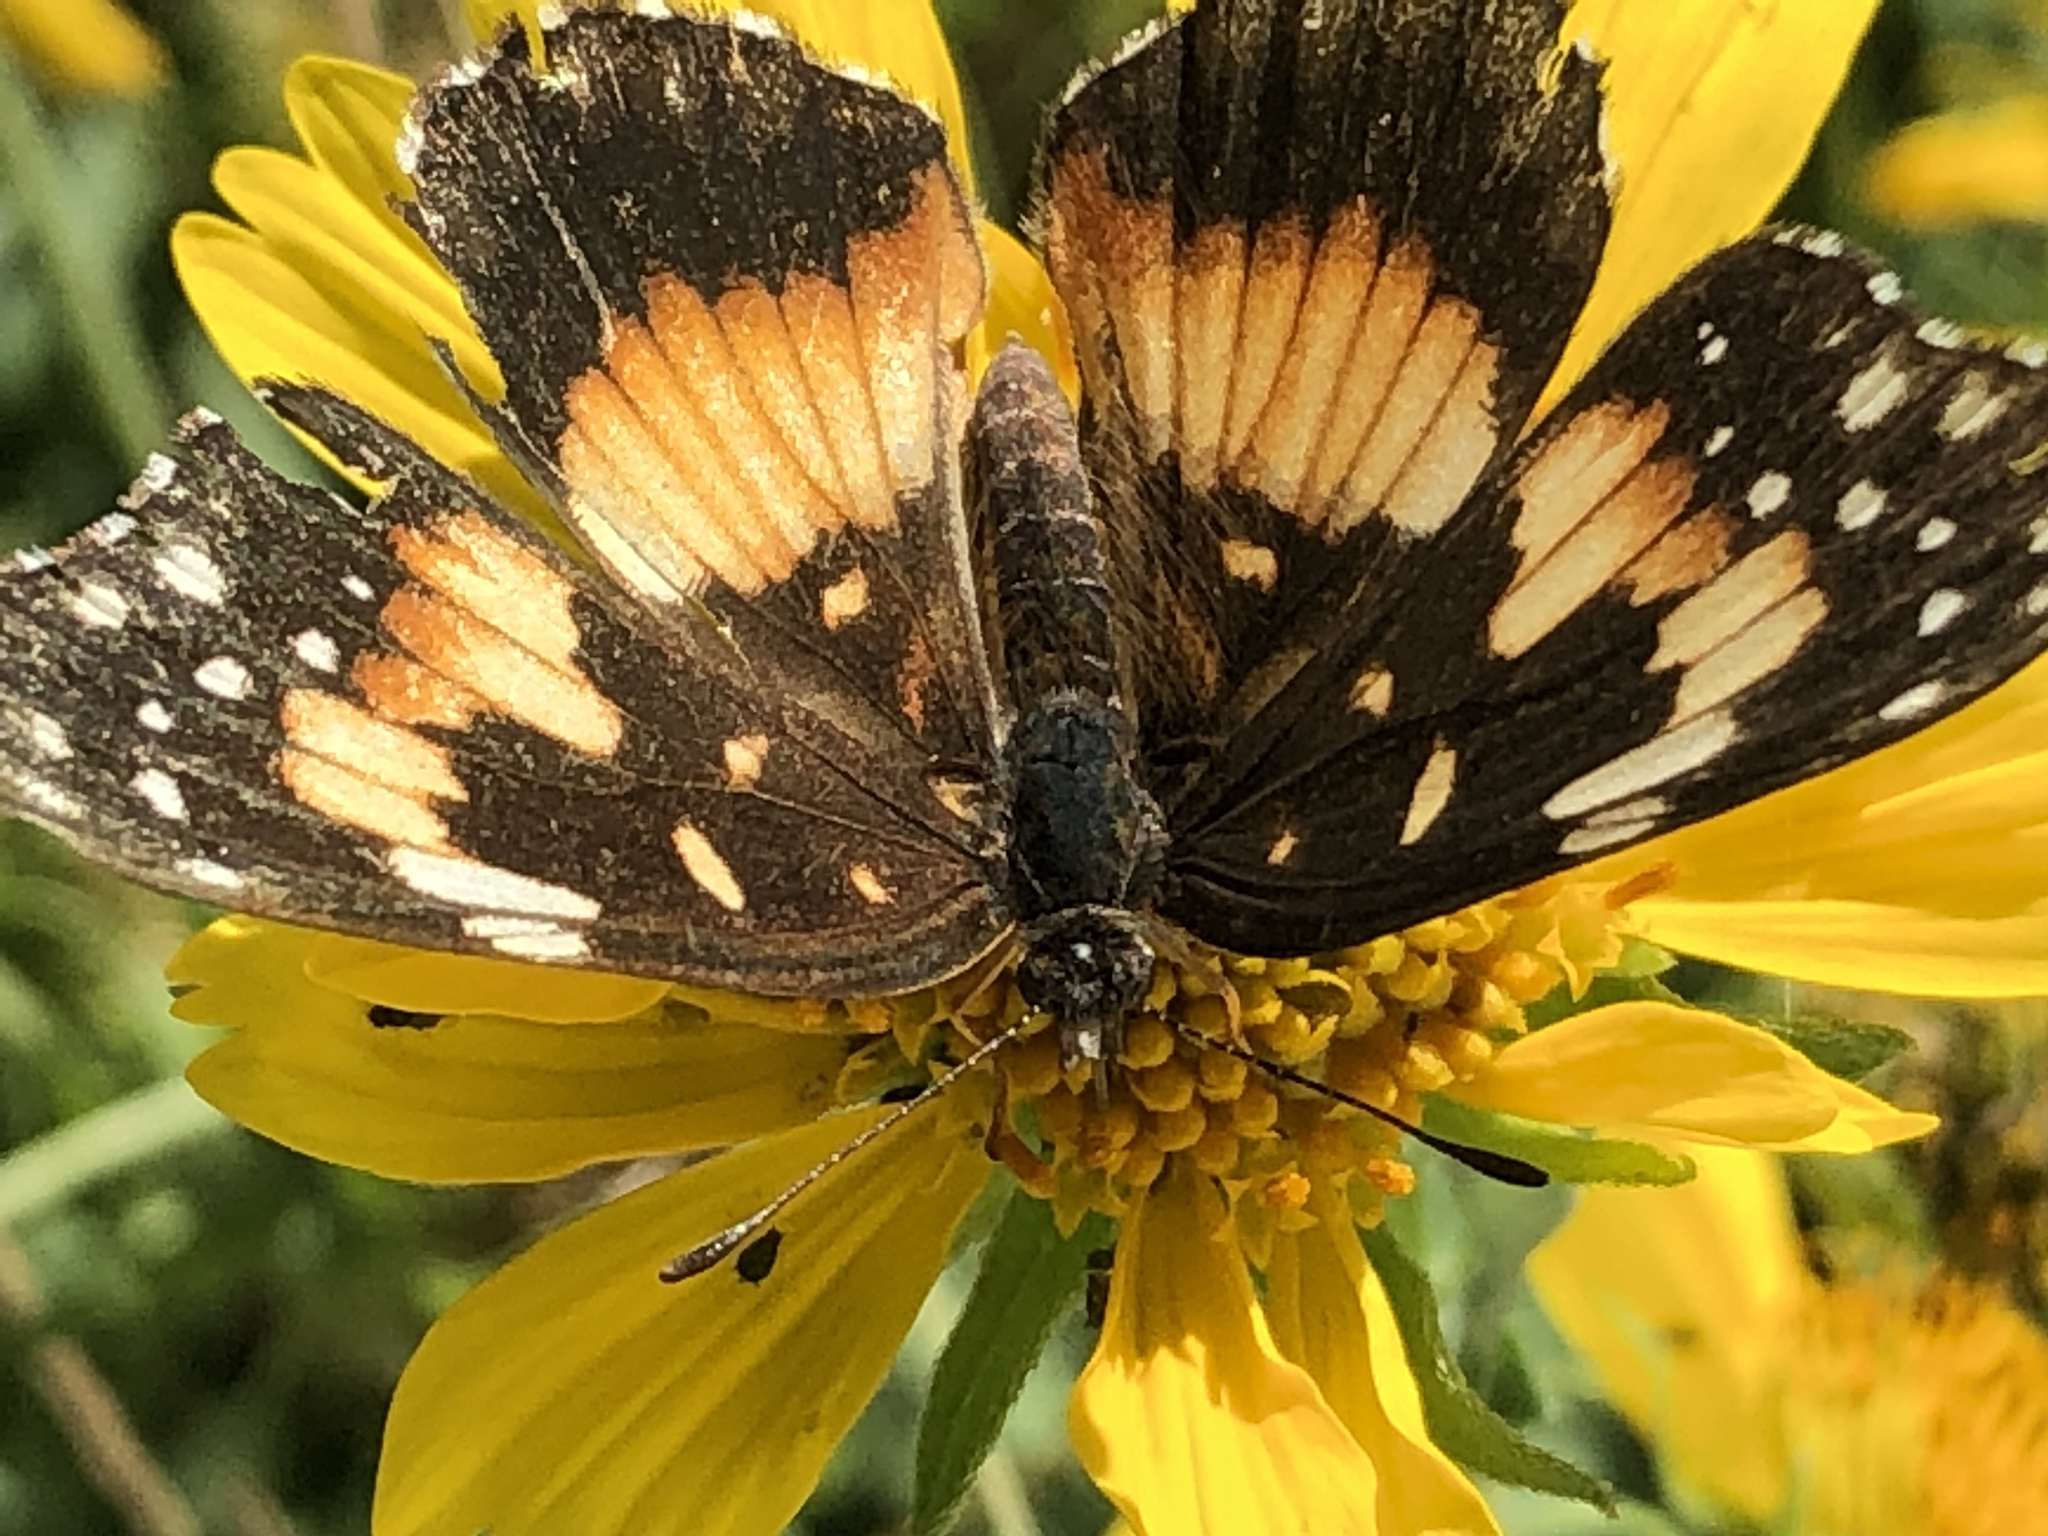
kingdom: Animalia
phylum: Arthropoda
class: Insecta
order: Lepidoptera
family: Nymphalidae
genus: Chlosyne
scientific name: Chlosyne lacinia
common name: Bordered patch
